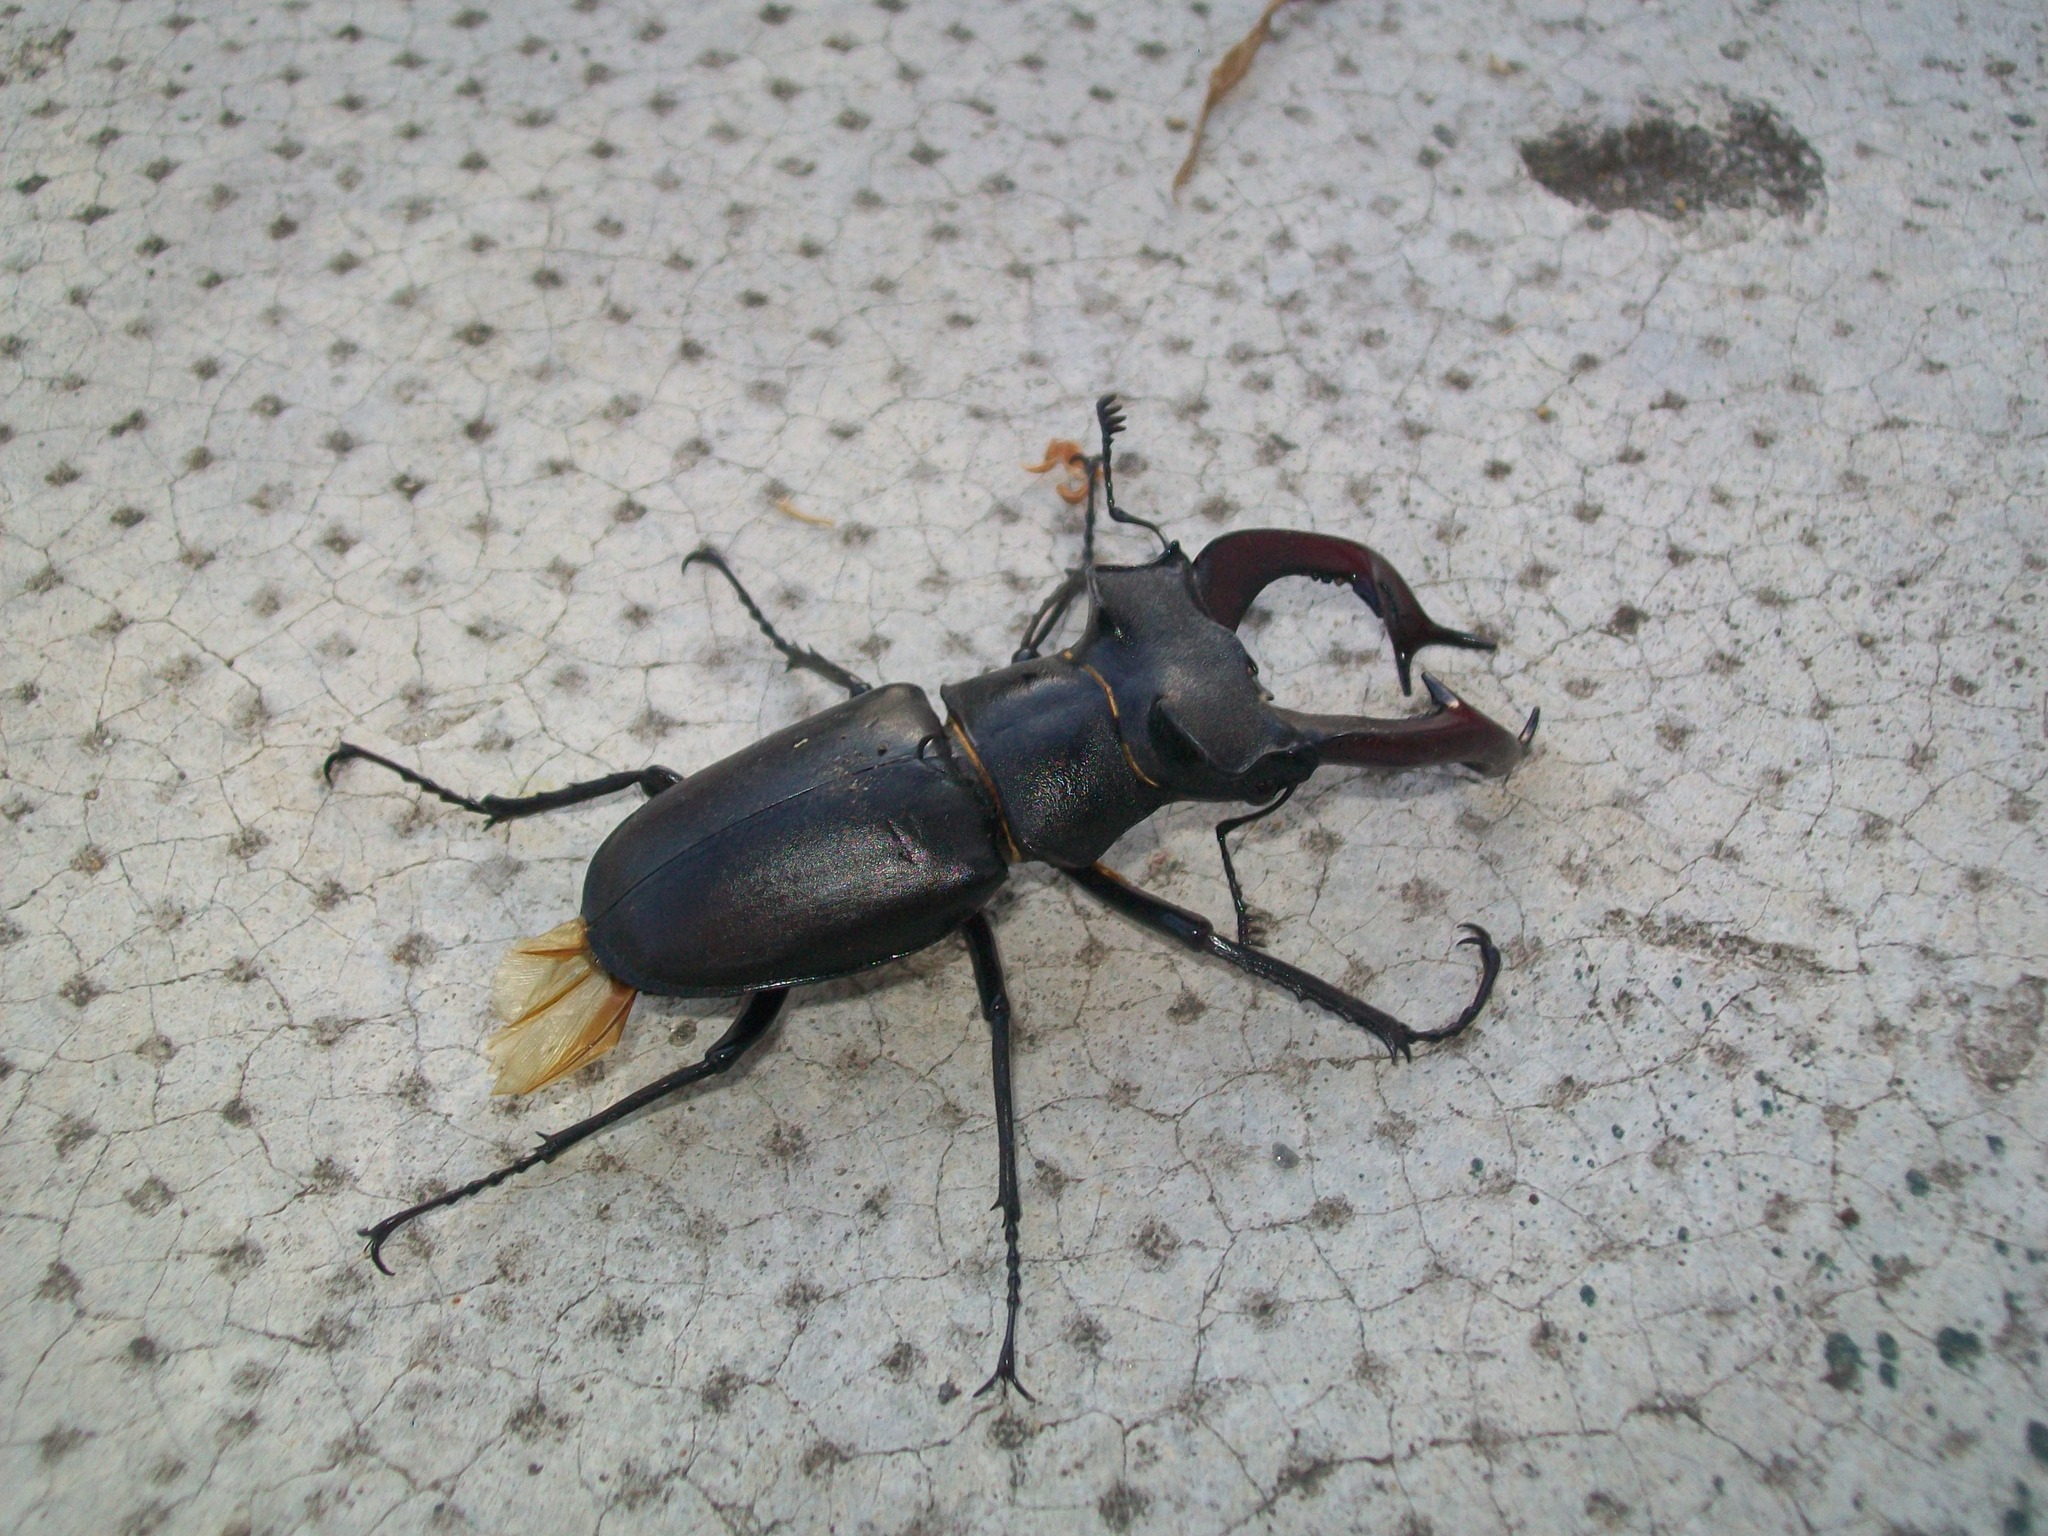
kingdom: Animalia
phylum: Arthropoda
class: Insecta
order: Coleoptera
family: Lucanidae
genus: Lucanus
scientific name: Lucanus cervus
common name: Stag beetle
